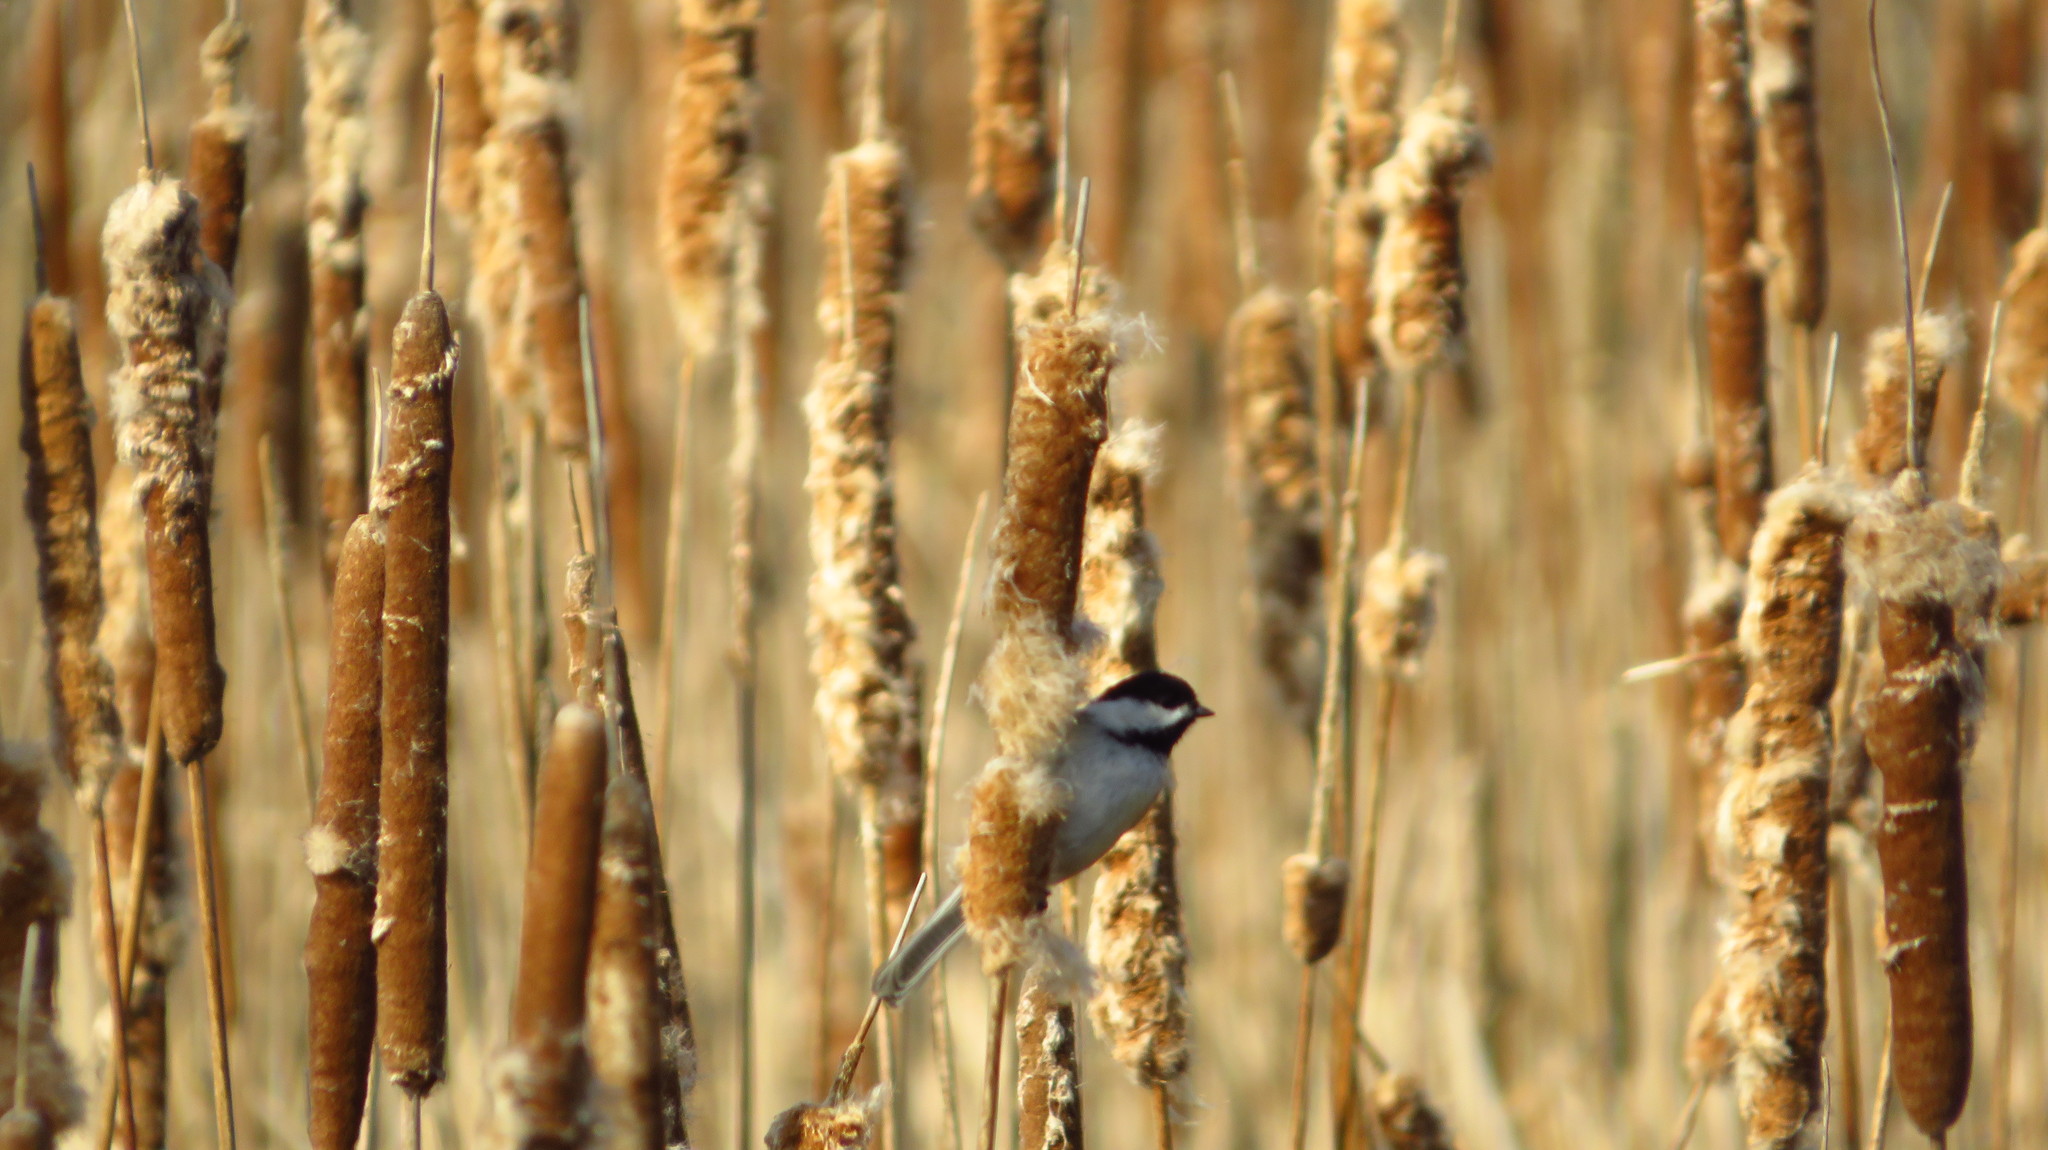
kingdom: Animalia
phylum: Chordata
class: Aves
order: Passeriformes
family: Paridae
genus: Poecile
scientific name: Poecile atricapillus
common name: Black-capped chickadee
